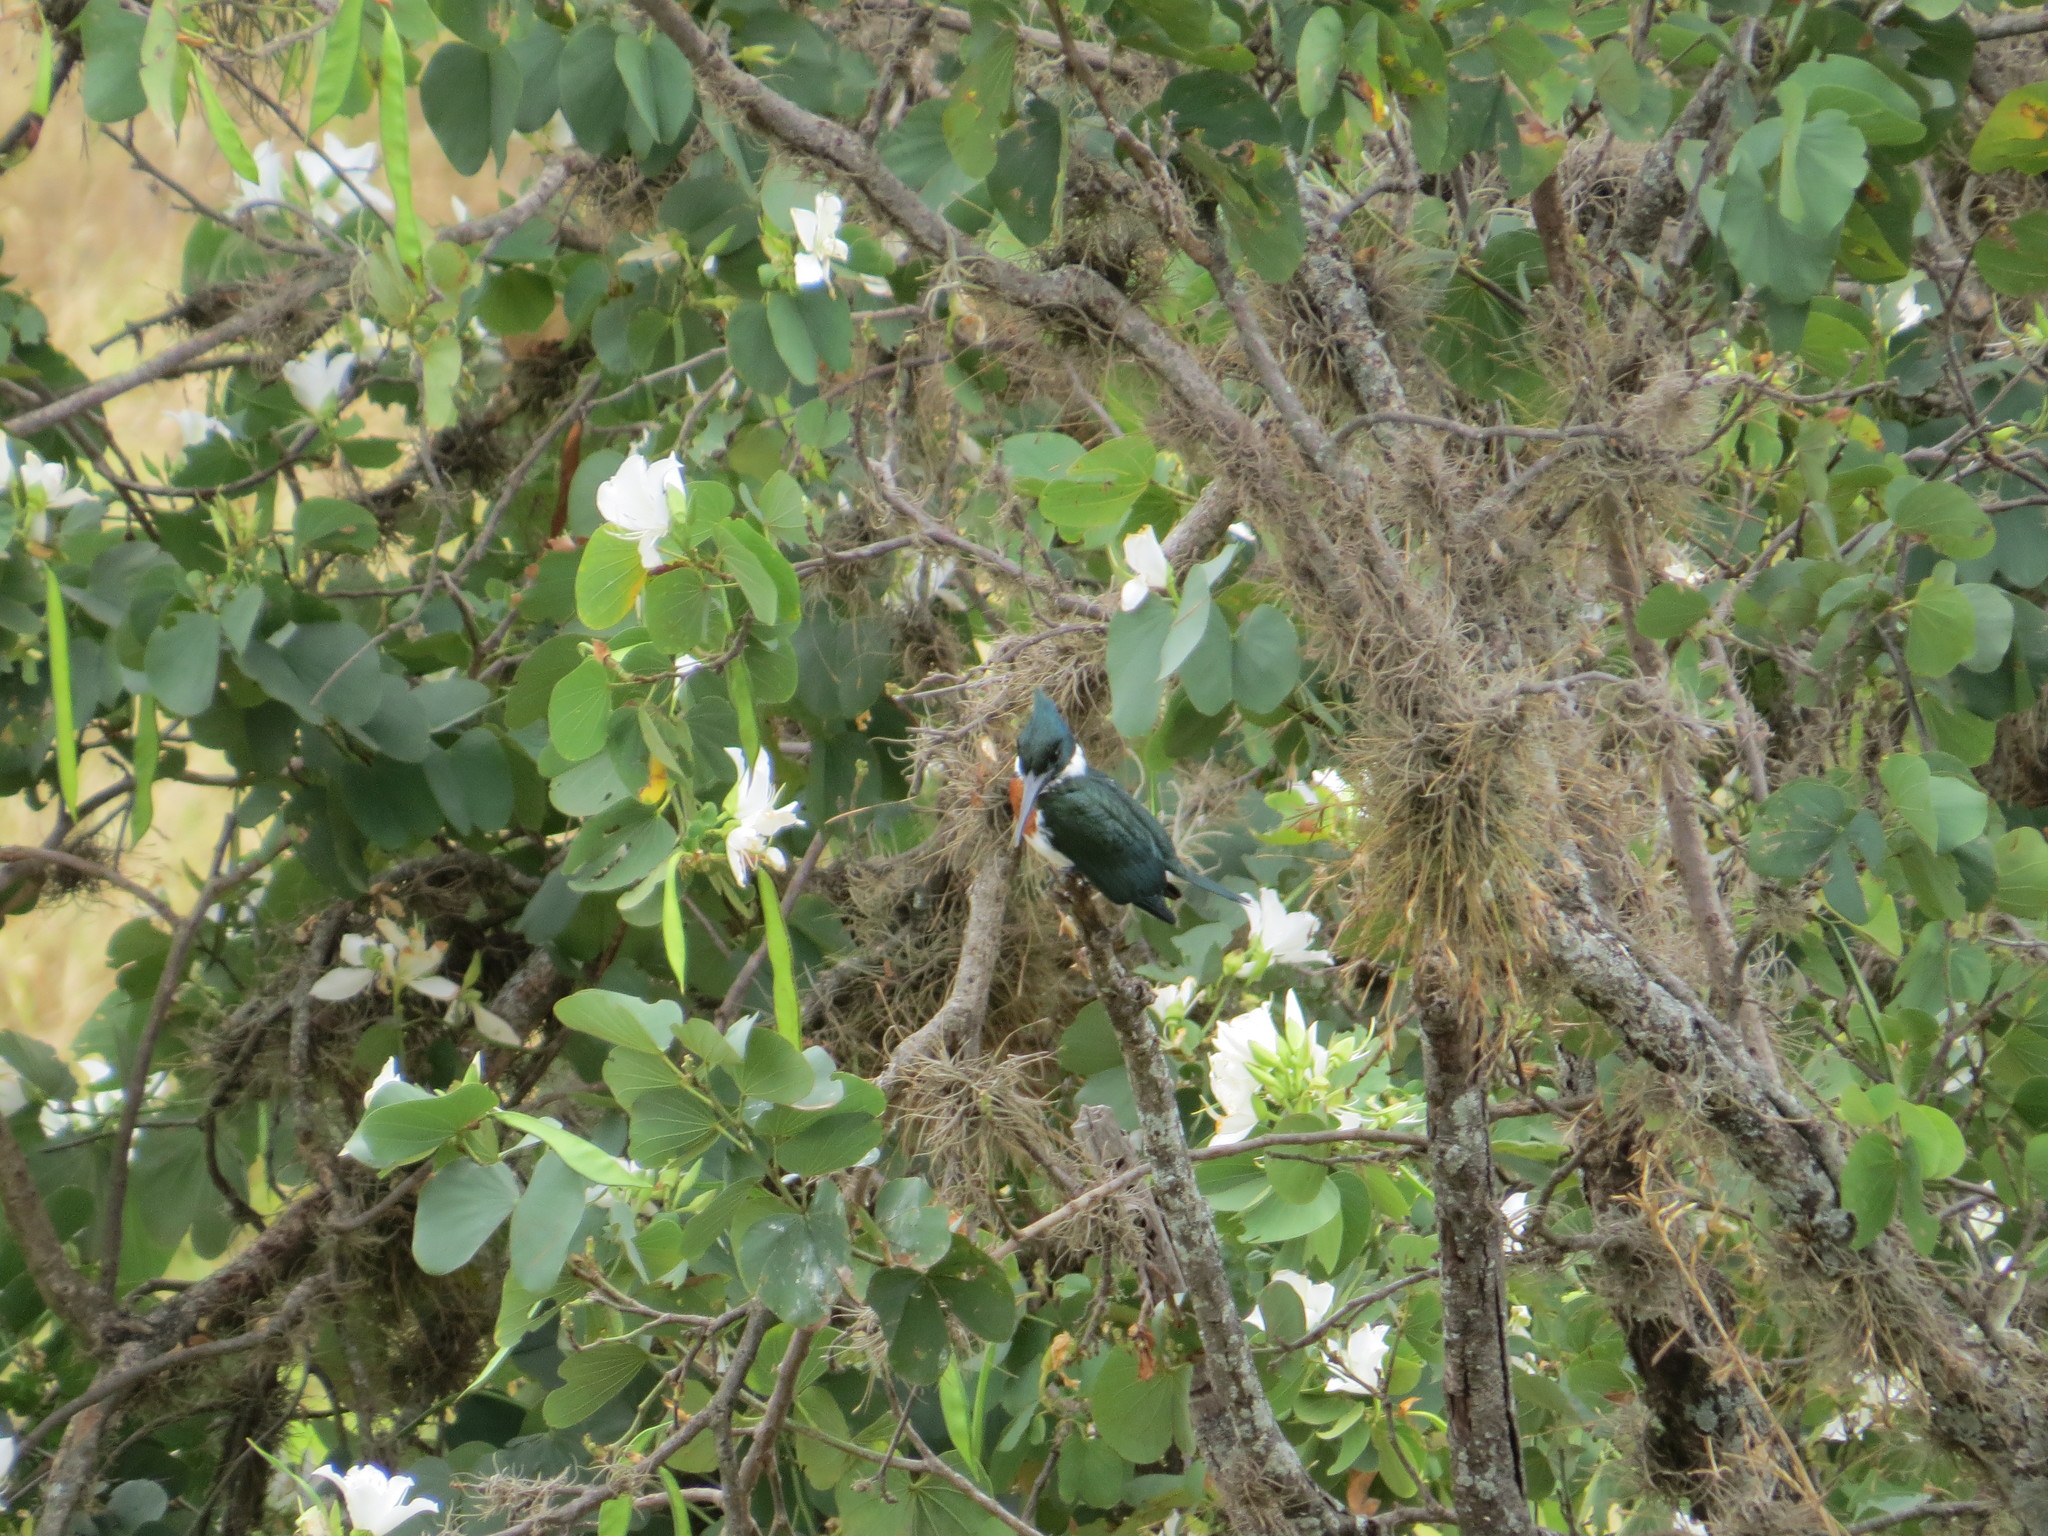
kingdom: Animalia
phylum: Chordata
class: Aves
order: Coraciiformes
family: Alcedinidae
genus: Chloroceryle
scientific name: Chloroceryle amazona
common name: Amazon kingfisher
